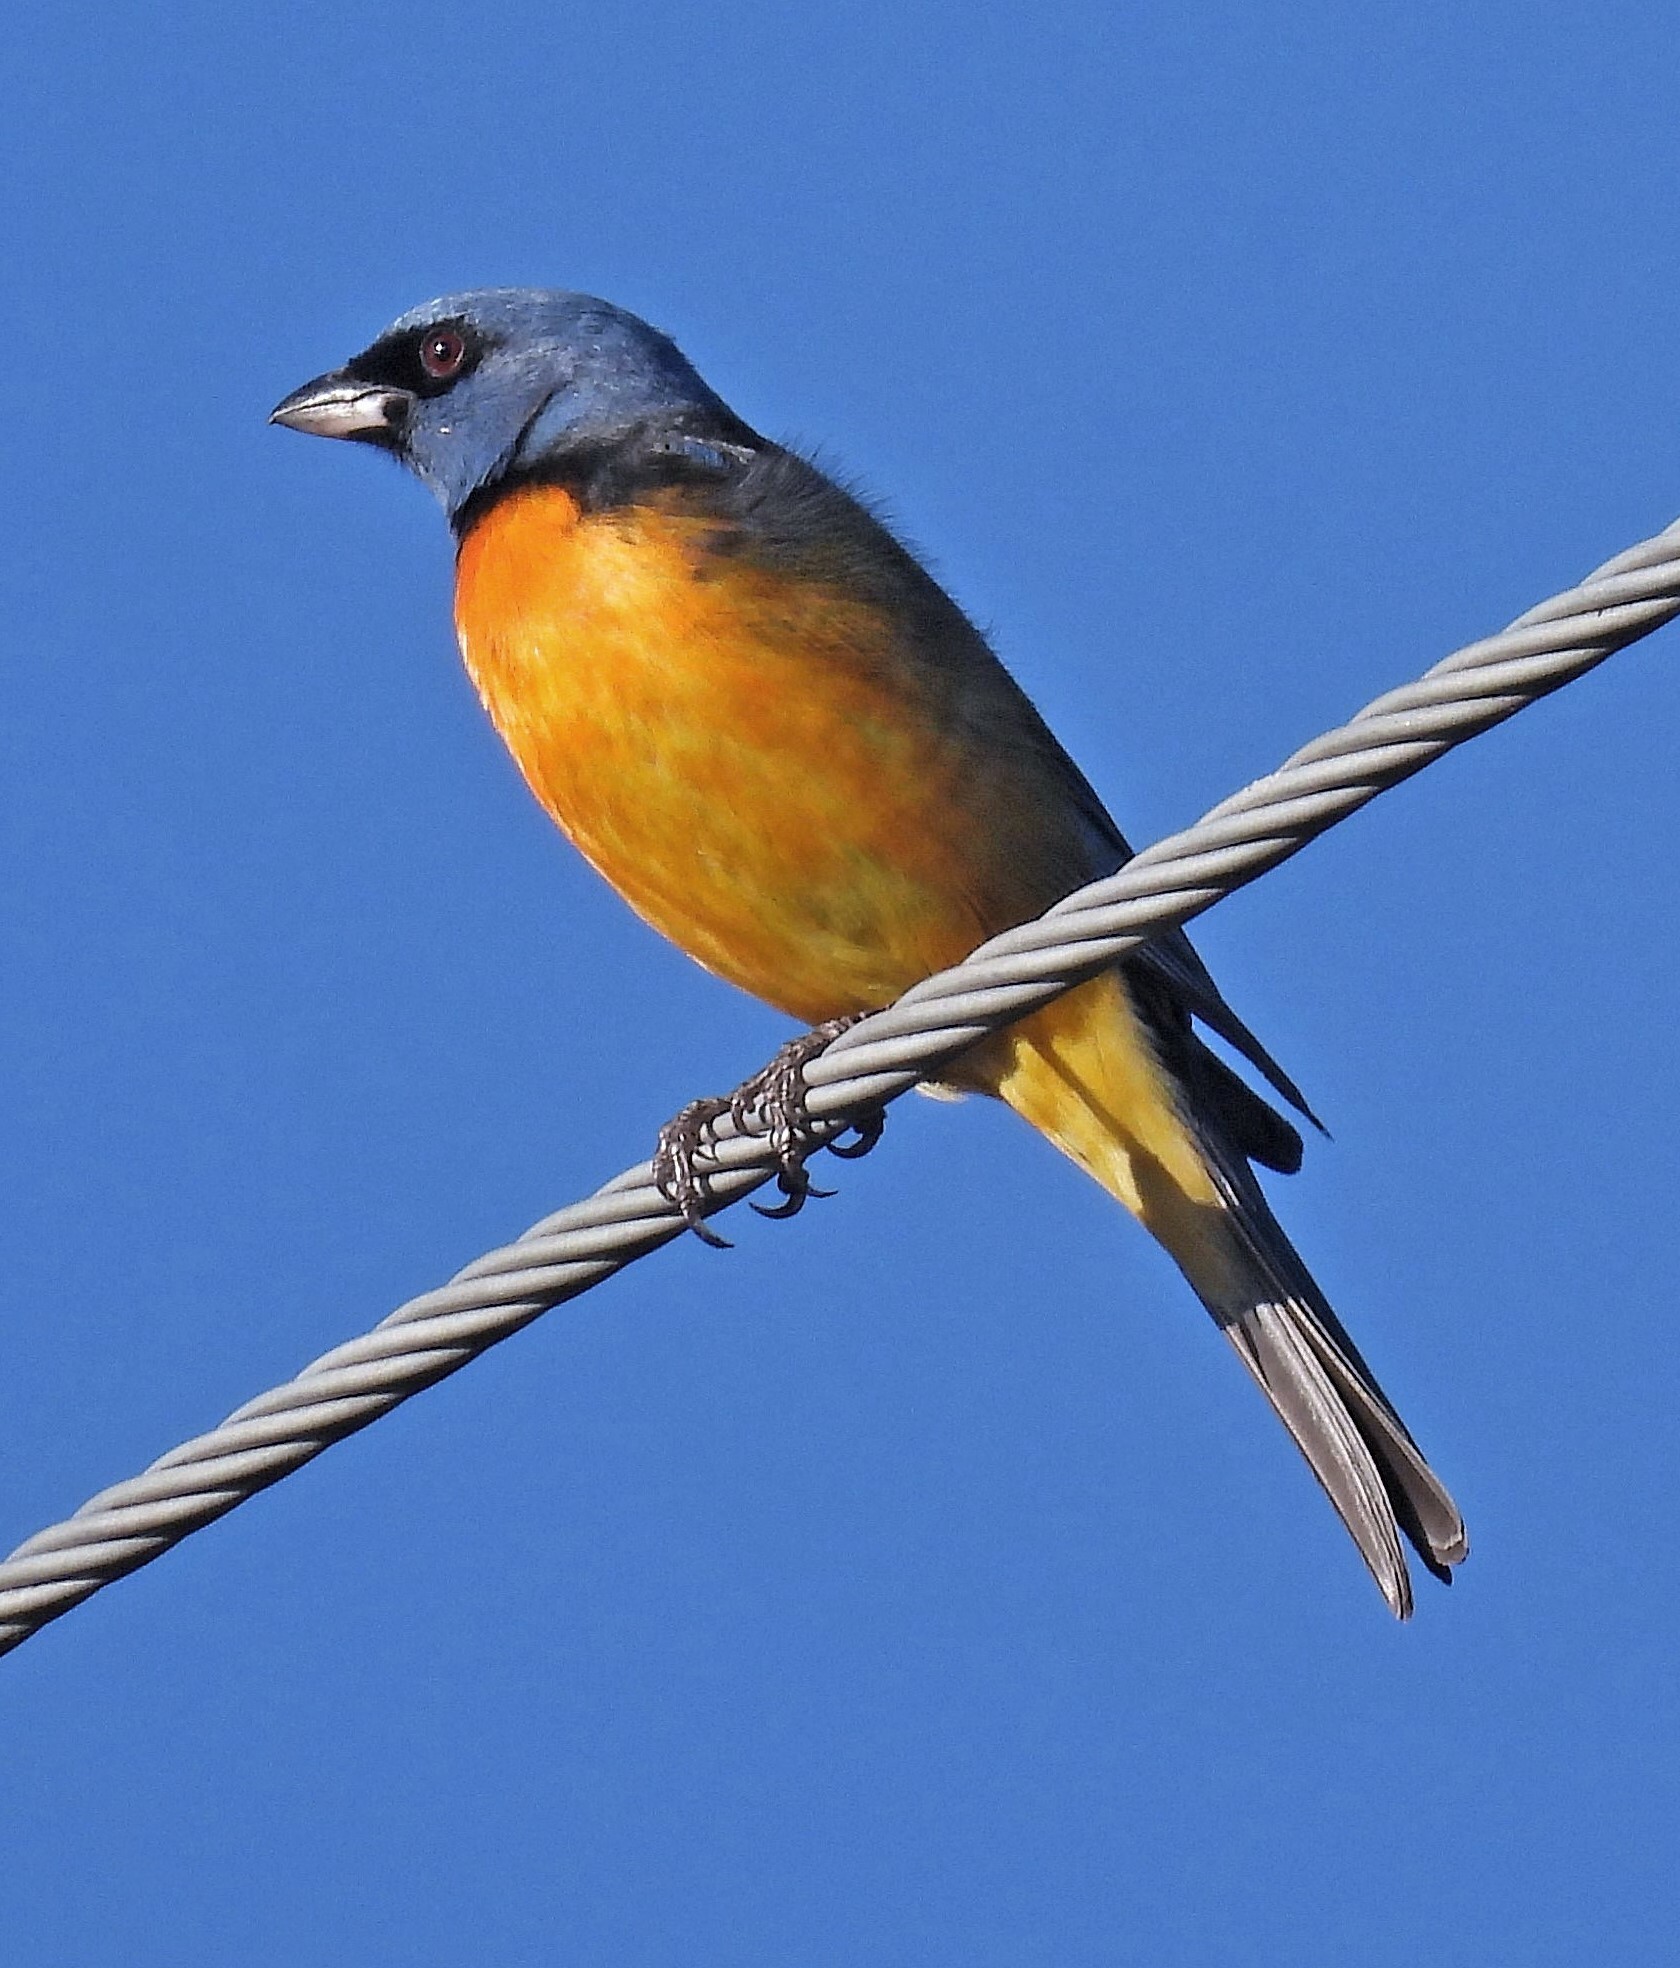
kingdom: Animalia
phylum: Chordata
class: Aves
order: Passeriformes
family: Thraupidae
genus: Rauenia
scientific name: Rauenia bonariensis
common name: Blue-and-yellow tanager
